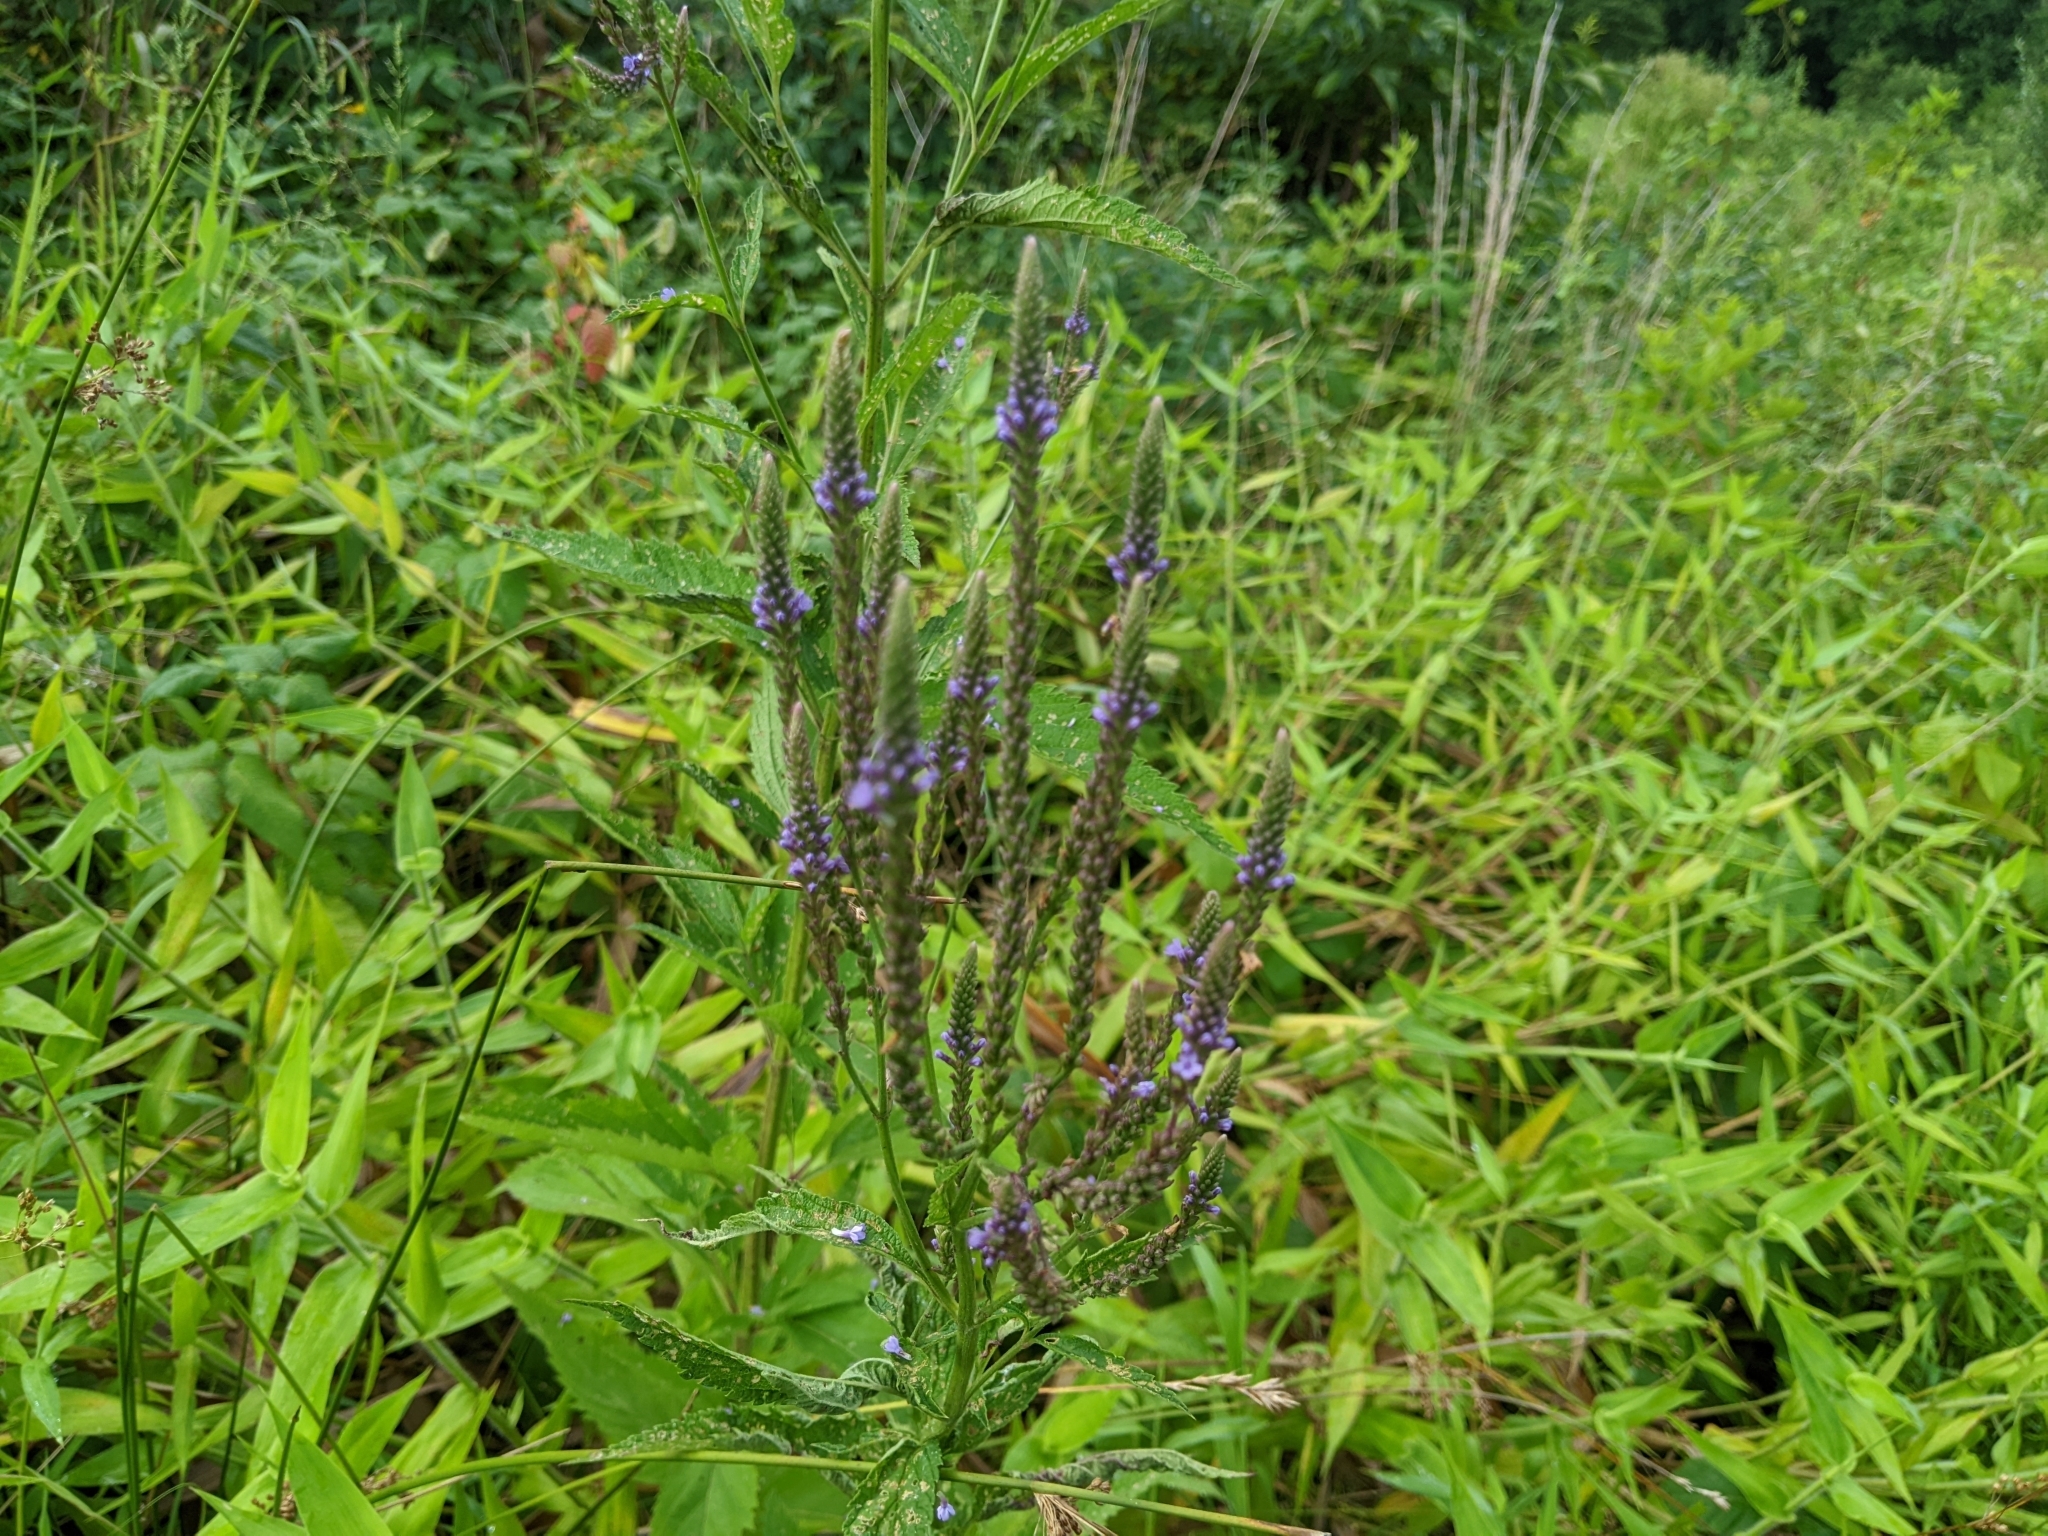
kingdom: Plantae
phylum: Tracheophyta
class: Magnoliopsida
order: Lamiales
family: Verbenaceae
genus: Verbena
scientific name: Verbena hastata
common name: American blue vervain
